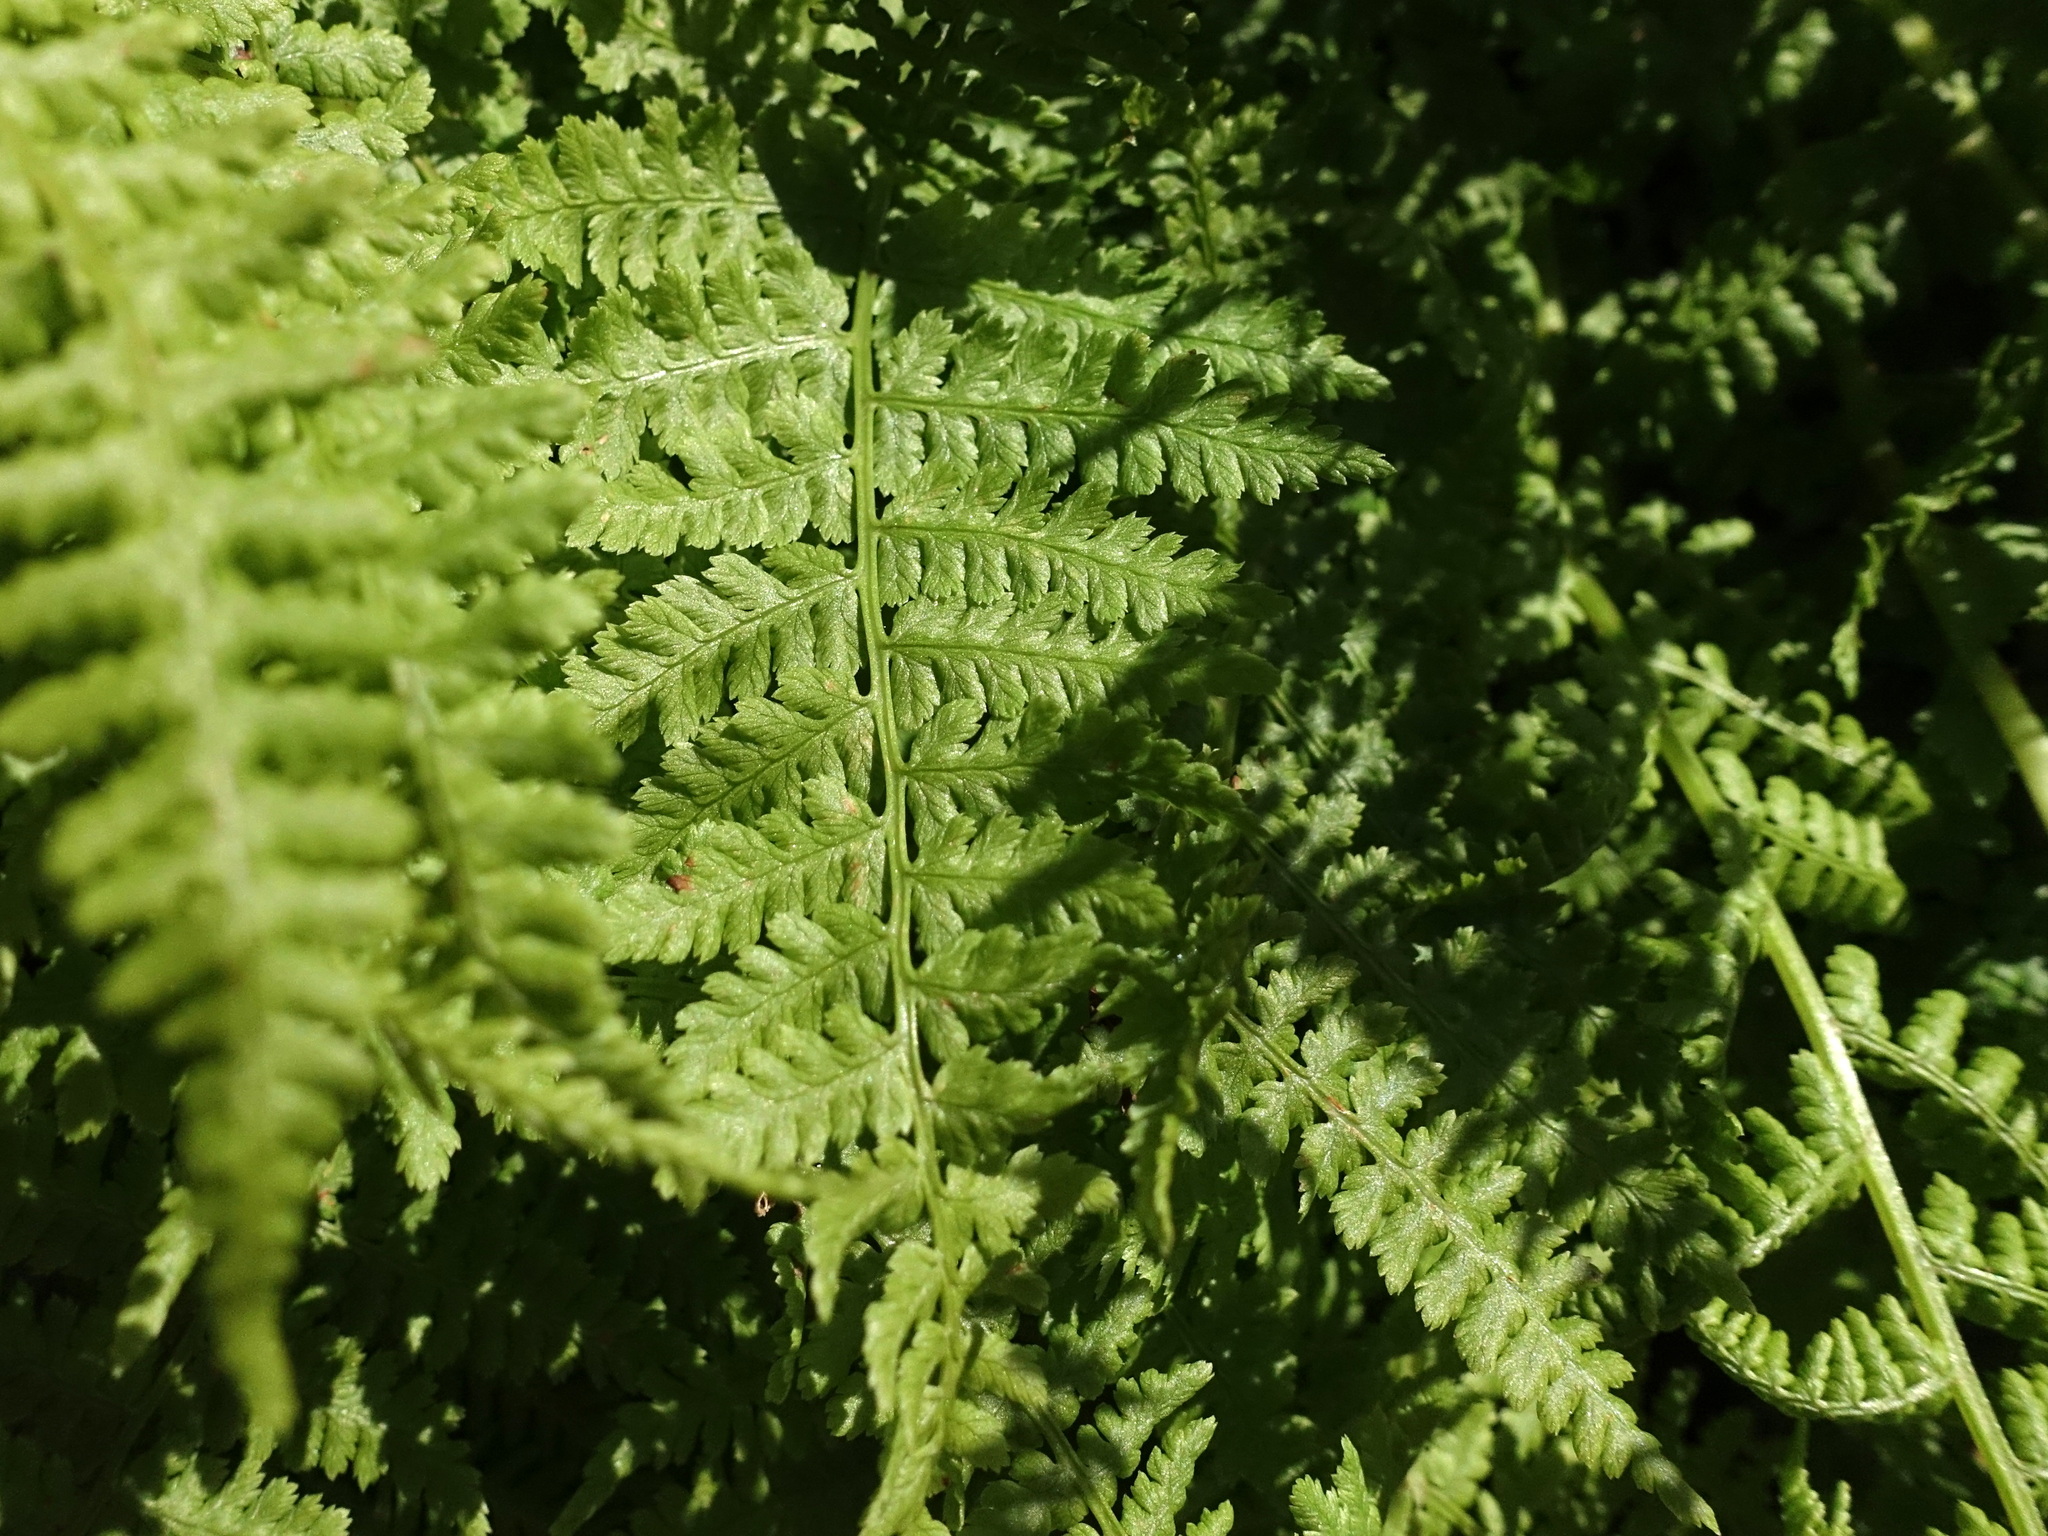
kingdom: Plantae
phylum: Tracheophyta
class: Polypodiopsida
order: Polypodiales
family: Athyriaceae
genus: Pseudathyrium
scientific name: Pseudathyrium alpestre
